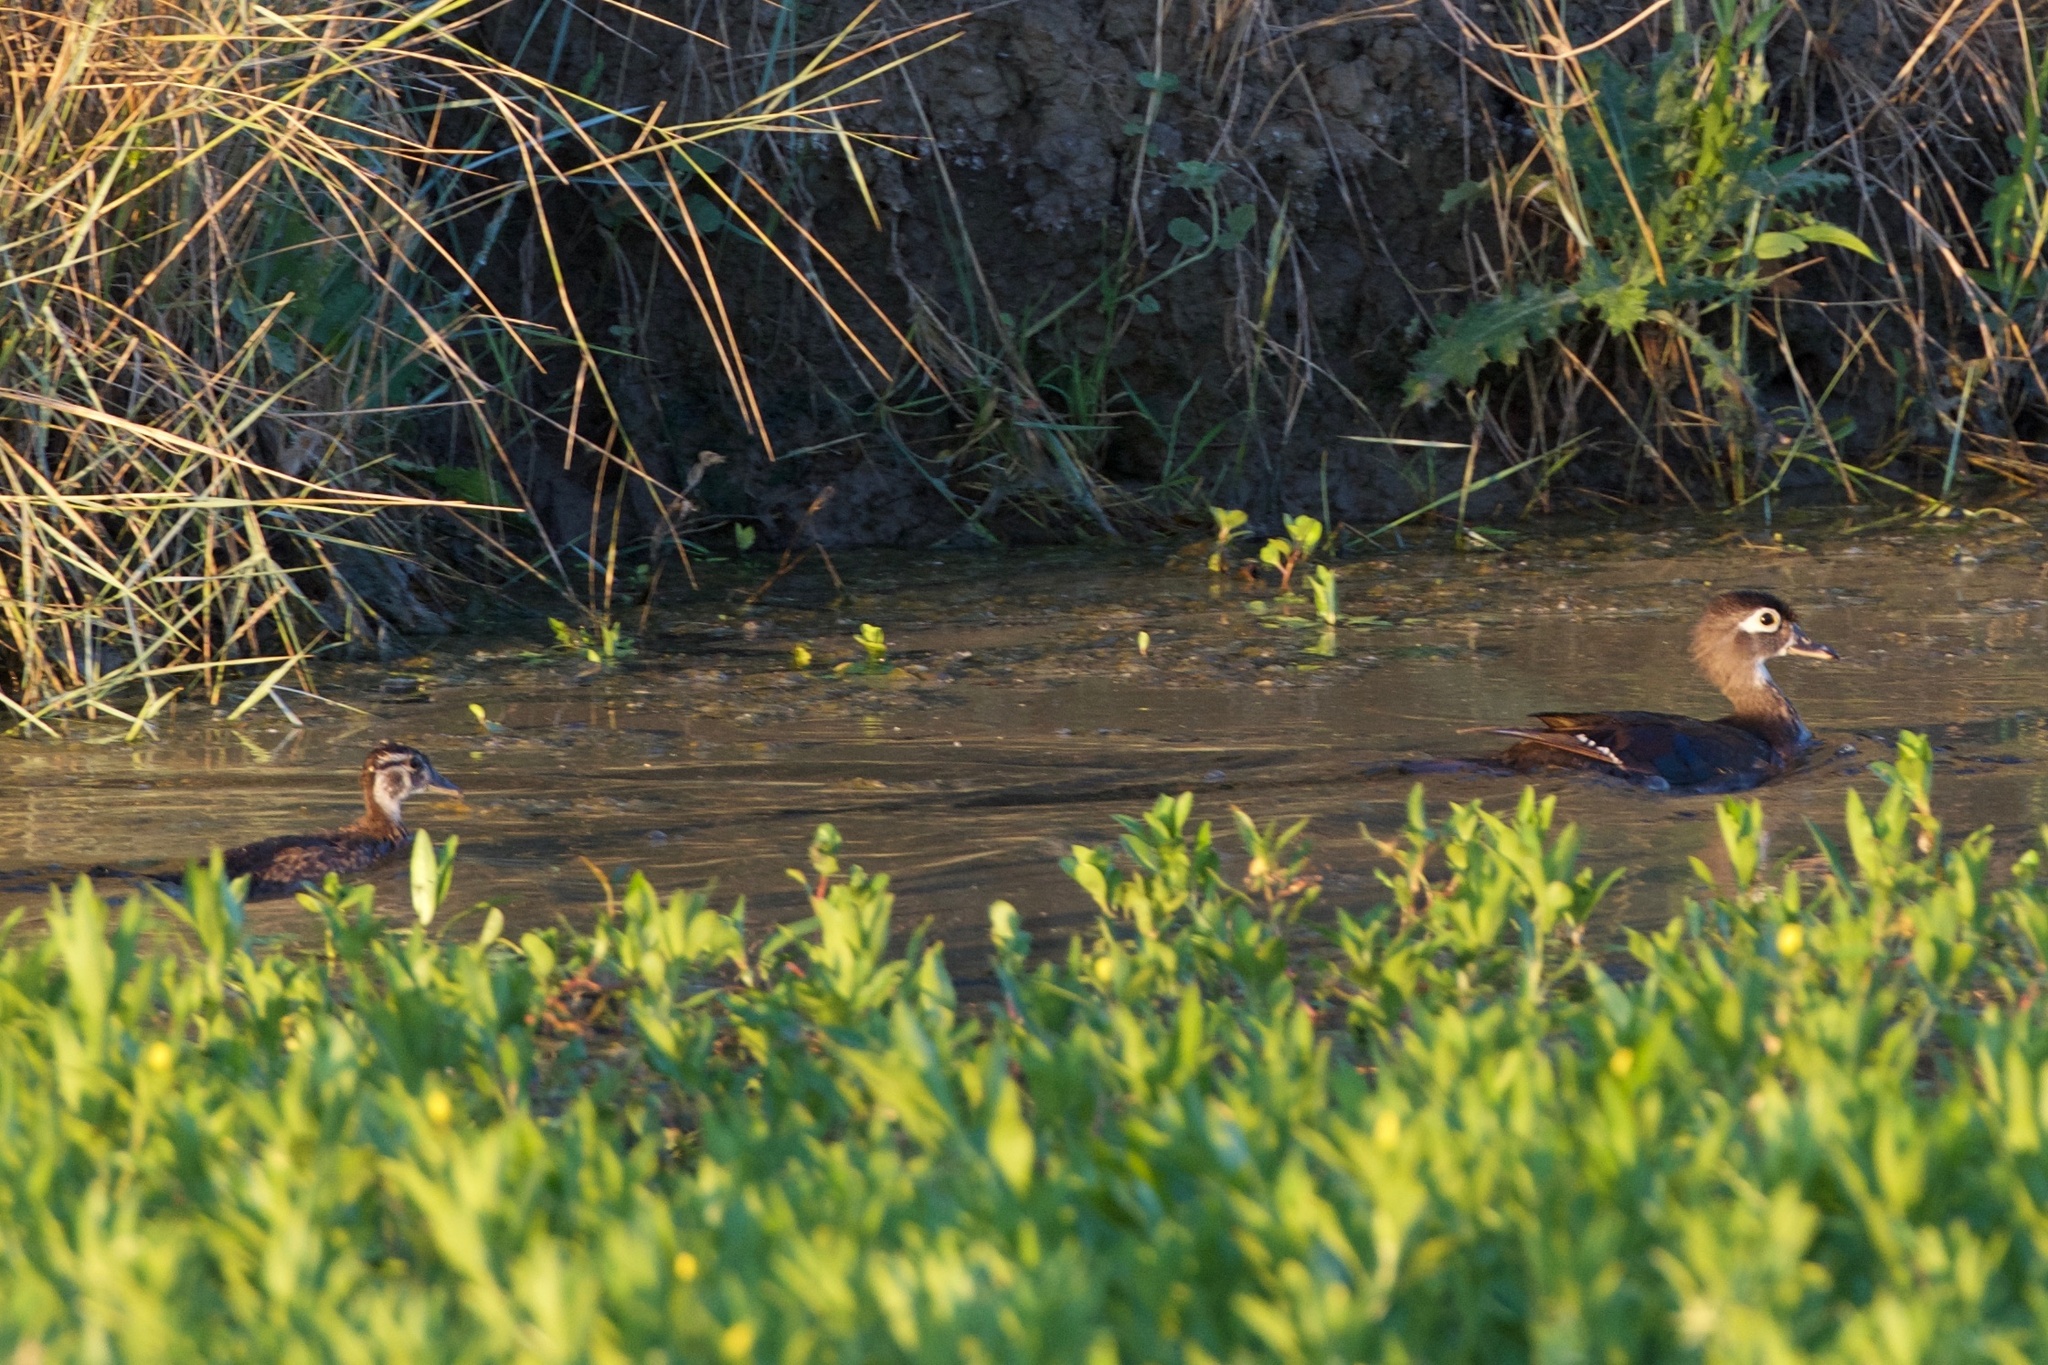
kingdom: Animalia
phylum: Chordata
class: Aves
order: Anseriformes
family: Anatidae
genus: Aix
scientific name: Aix sponsa
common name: Wood duck
